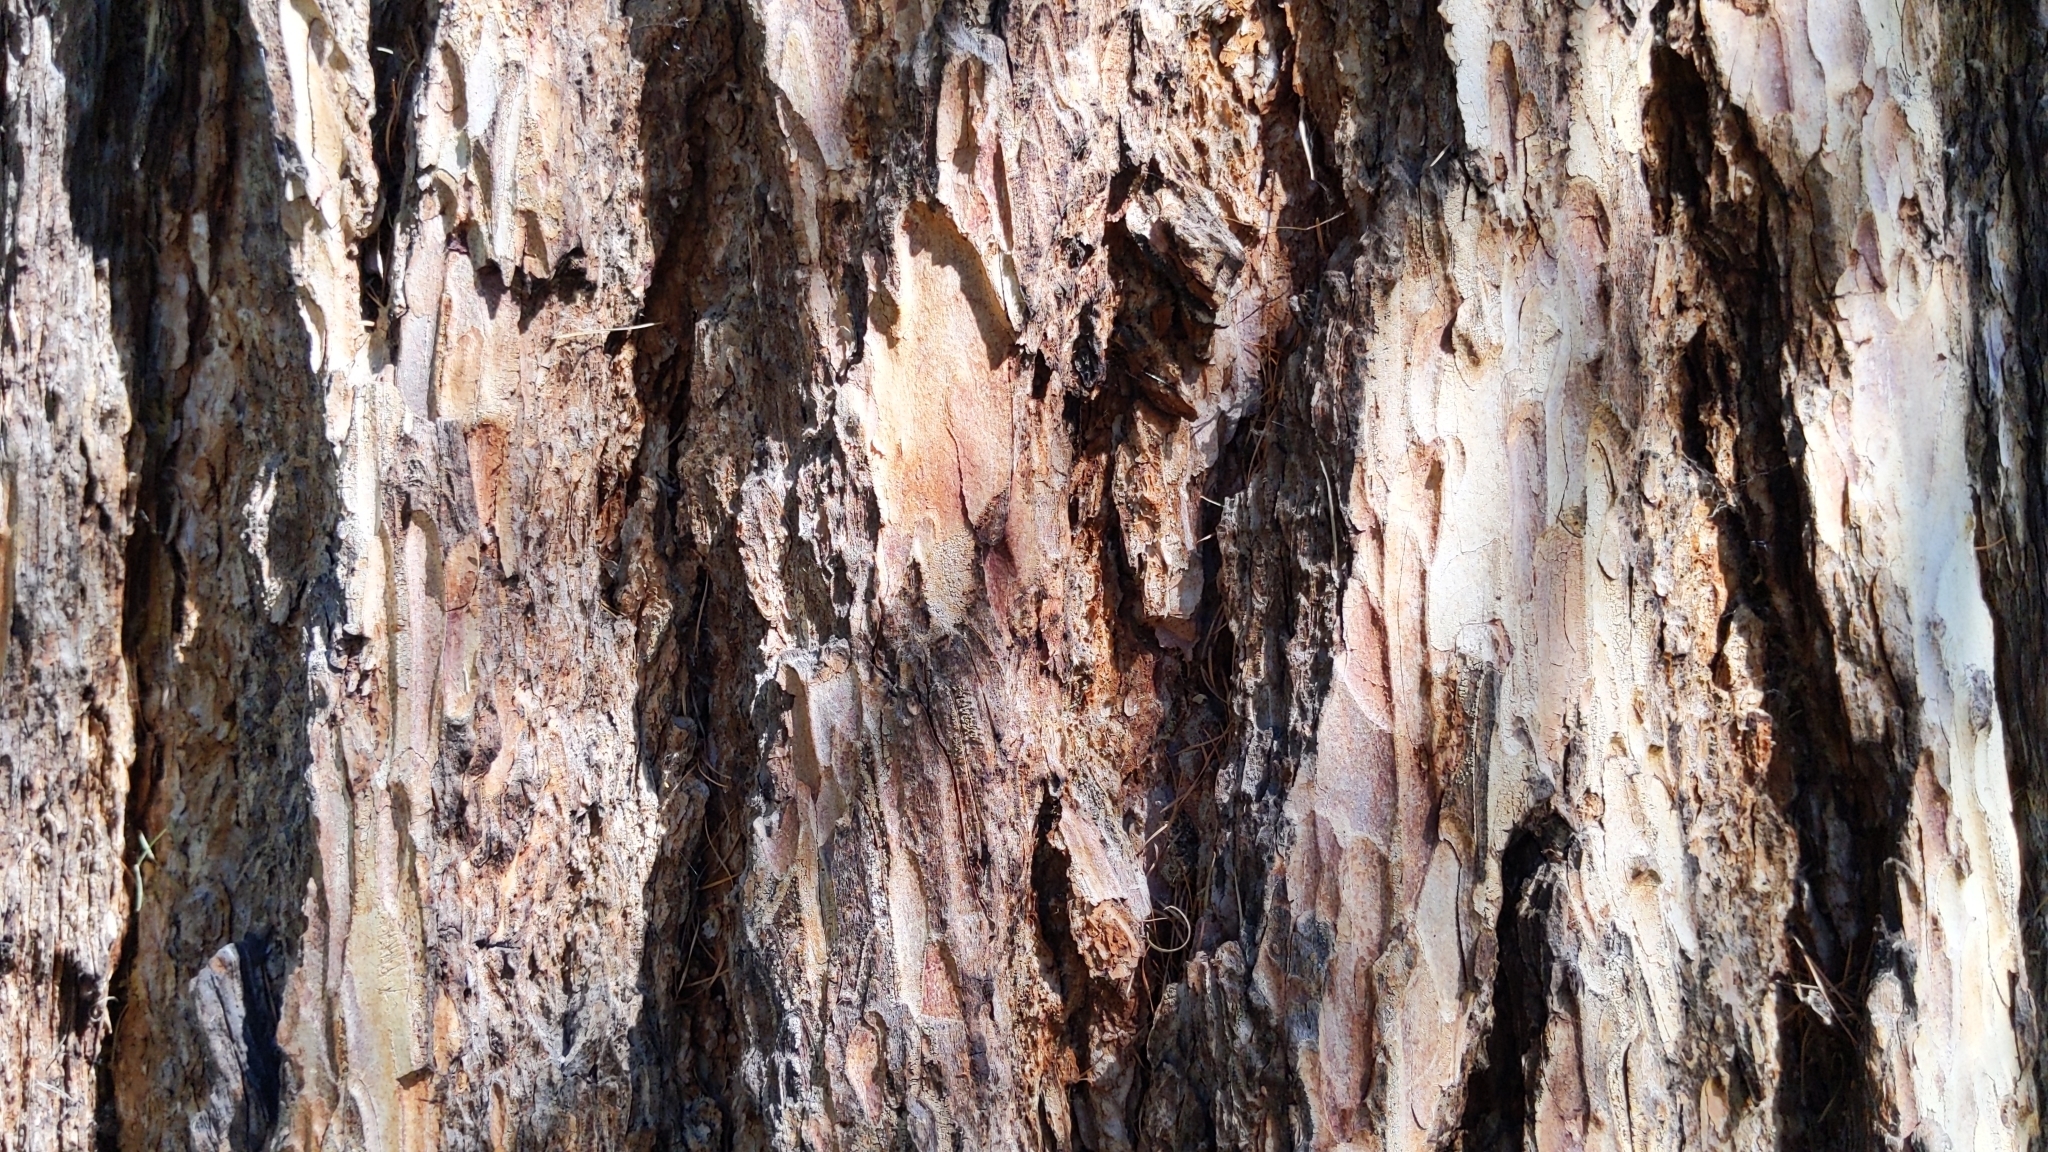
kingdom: Plantae
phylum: Tracheophyta
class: Pinopsida
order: Pinales
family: Pinaceae
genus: Larix
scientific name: Larix decidua
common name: European larch
